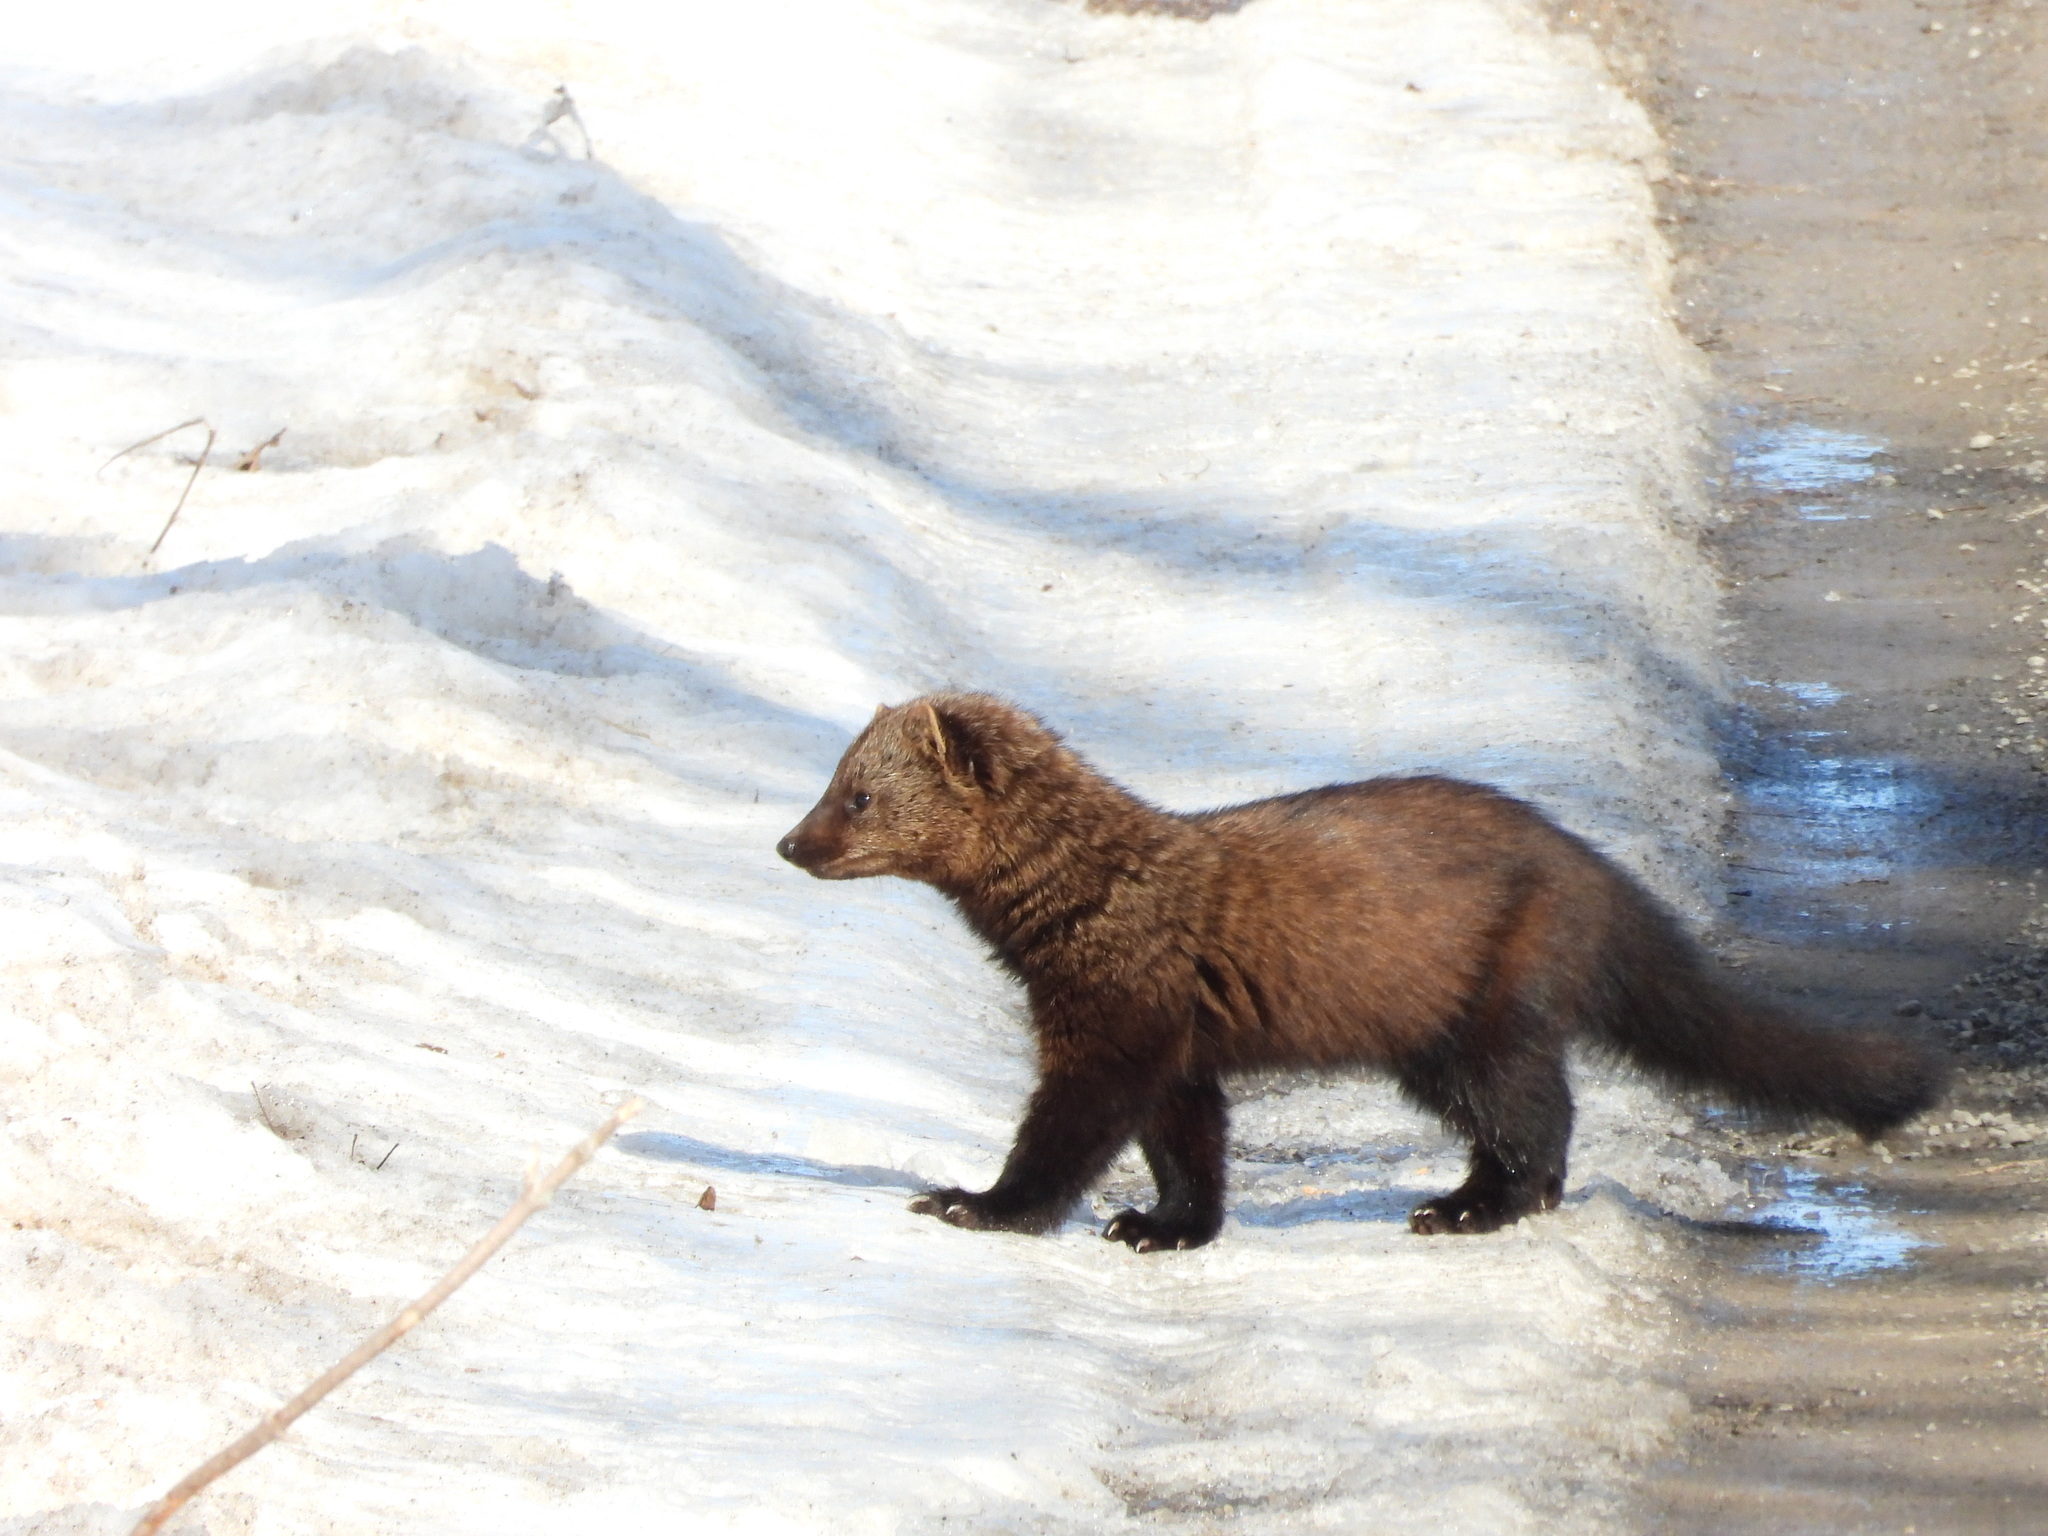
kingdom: Animalia
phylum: Chordata
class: Mammalia
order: Carnivora
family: Mustelidae
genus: Pekania
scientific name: Pekania pennanti
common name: Fisher
